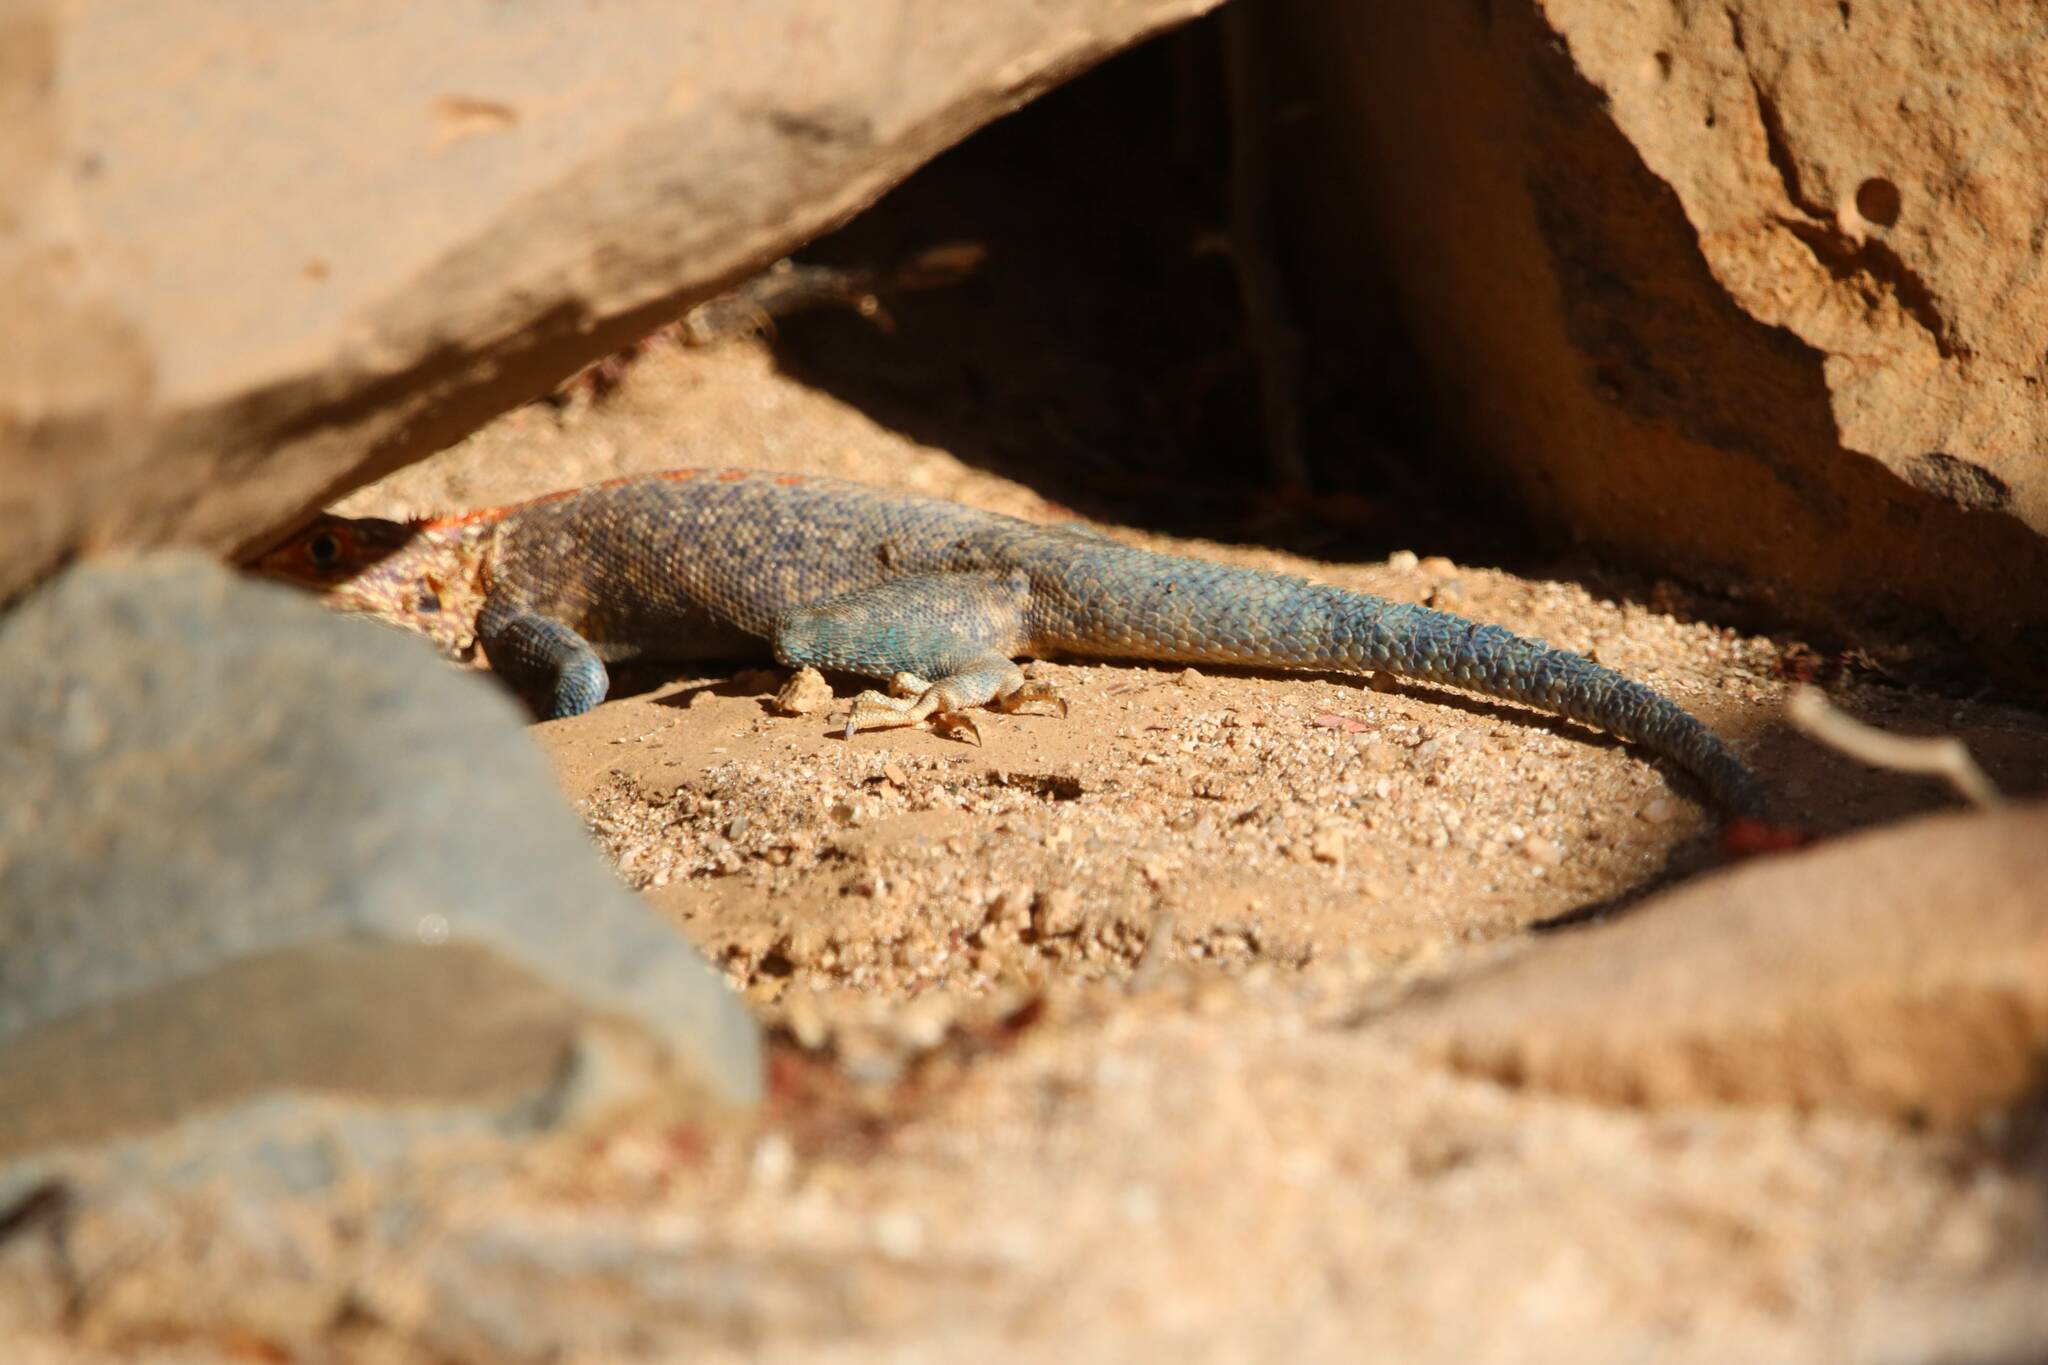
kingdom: Animalia
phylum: Chordata
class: Squamata
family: Agamidae
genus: Agama
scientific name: Agama impalearis
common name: Bibron's agama
